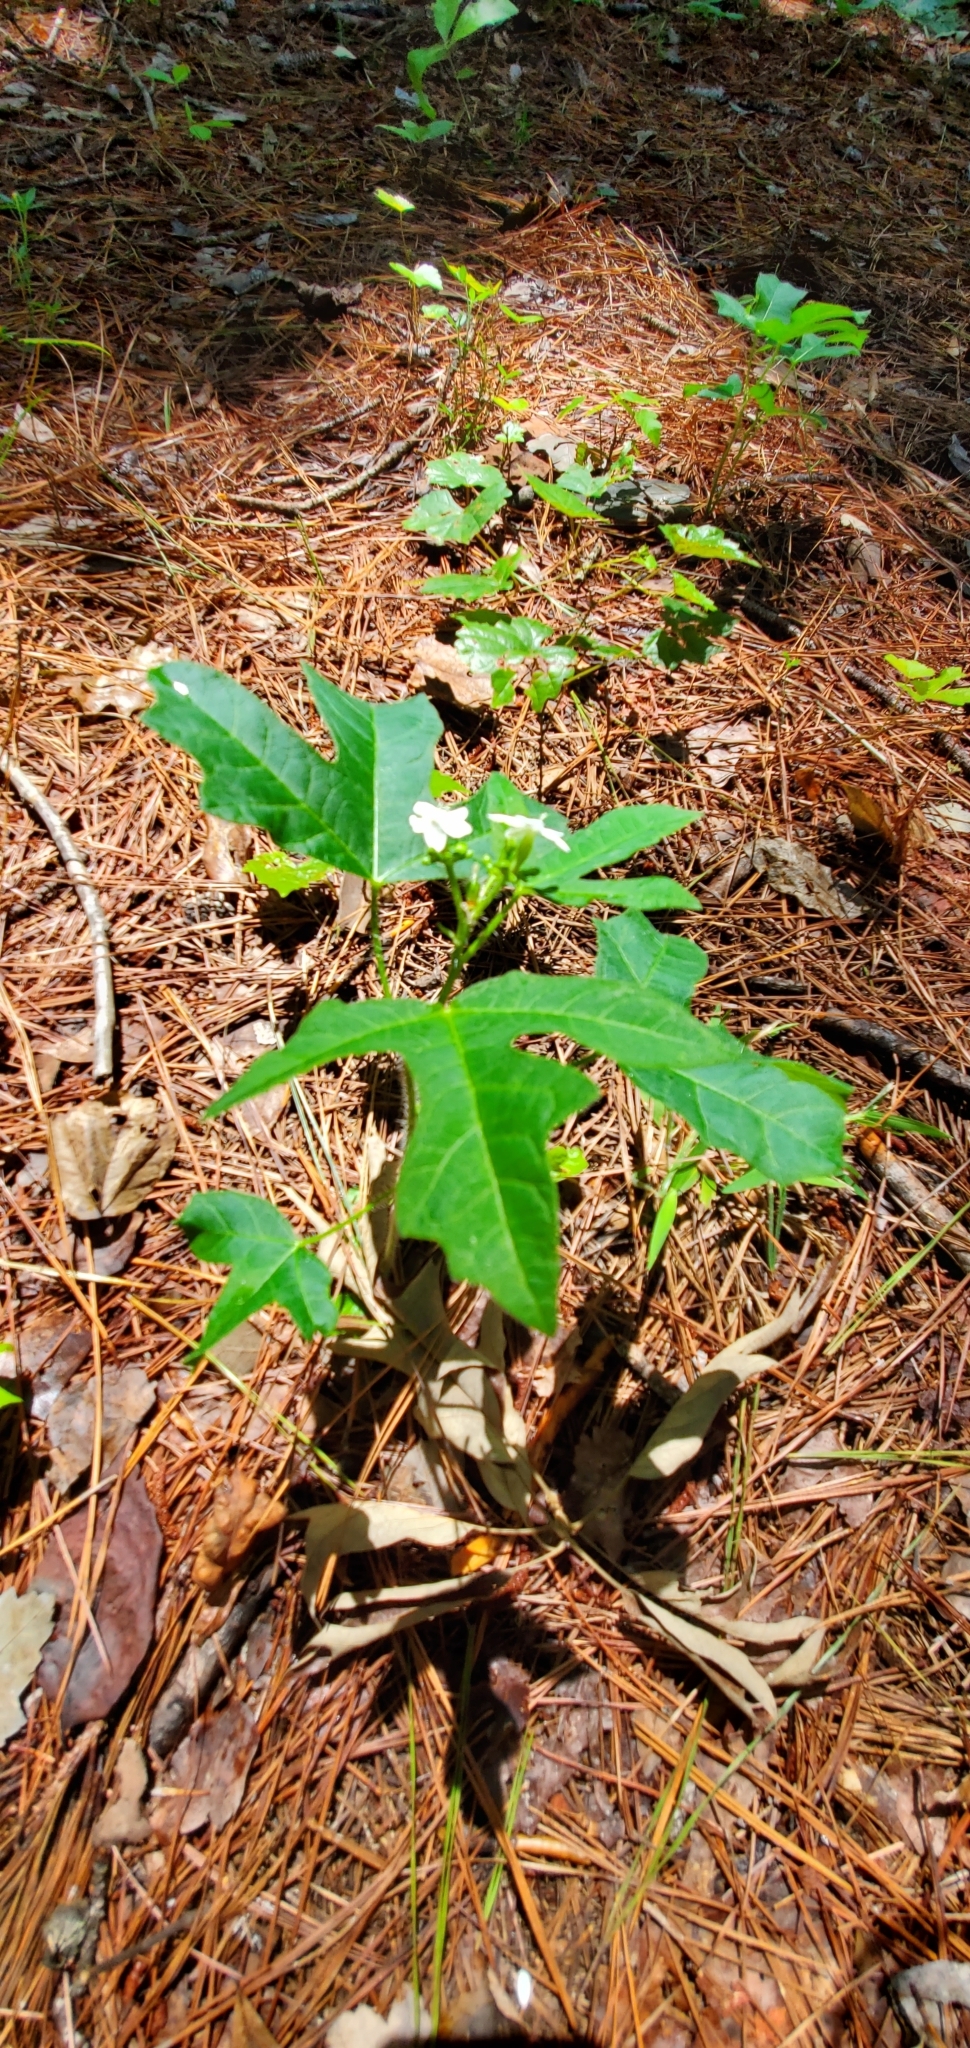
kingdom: Plantae
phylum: Tracheophyta
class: Magnoliopsida
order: Malpighiales
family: Euphorbiaceae
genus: Cnidoscolus
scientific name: Cnidoscolus stimulosus
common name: Bull-nettle
